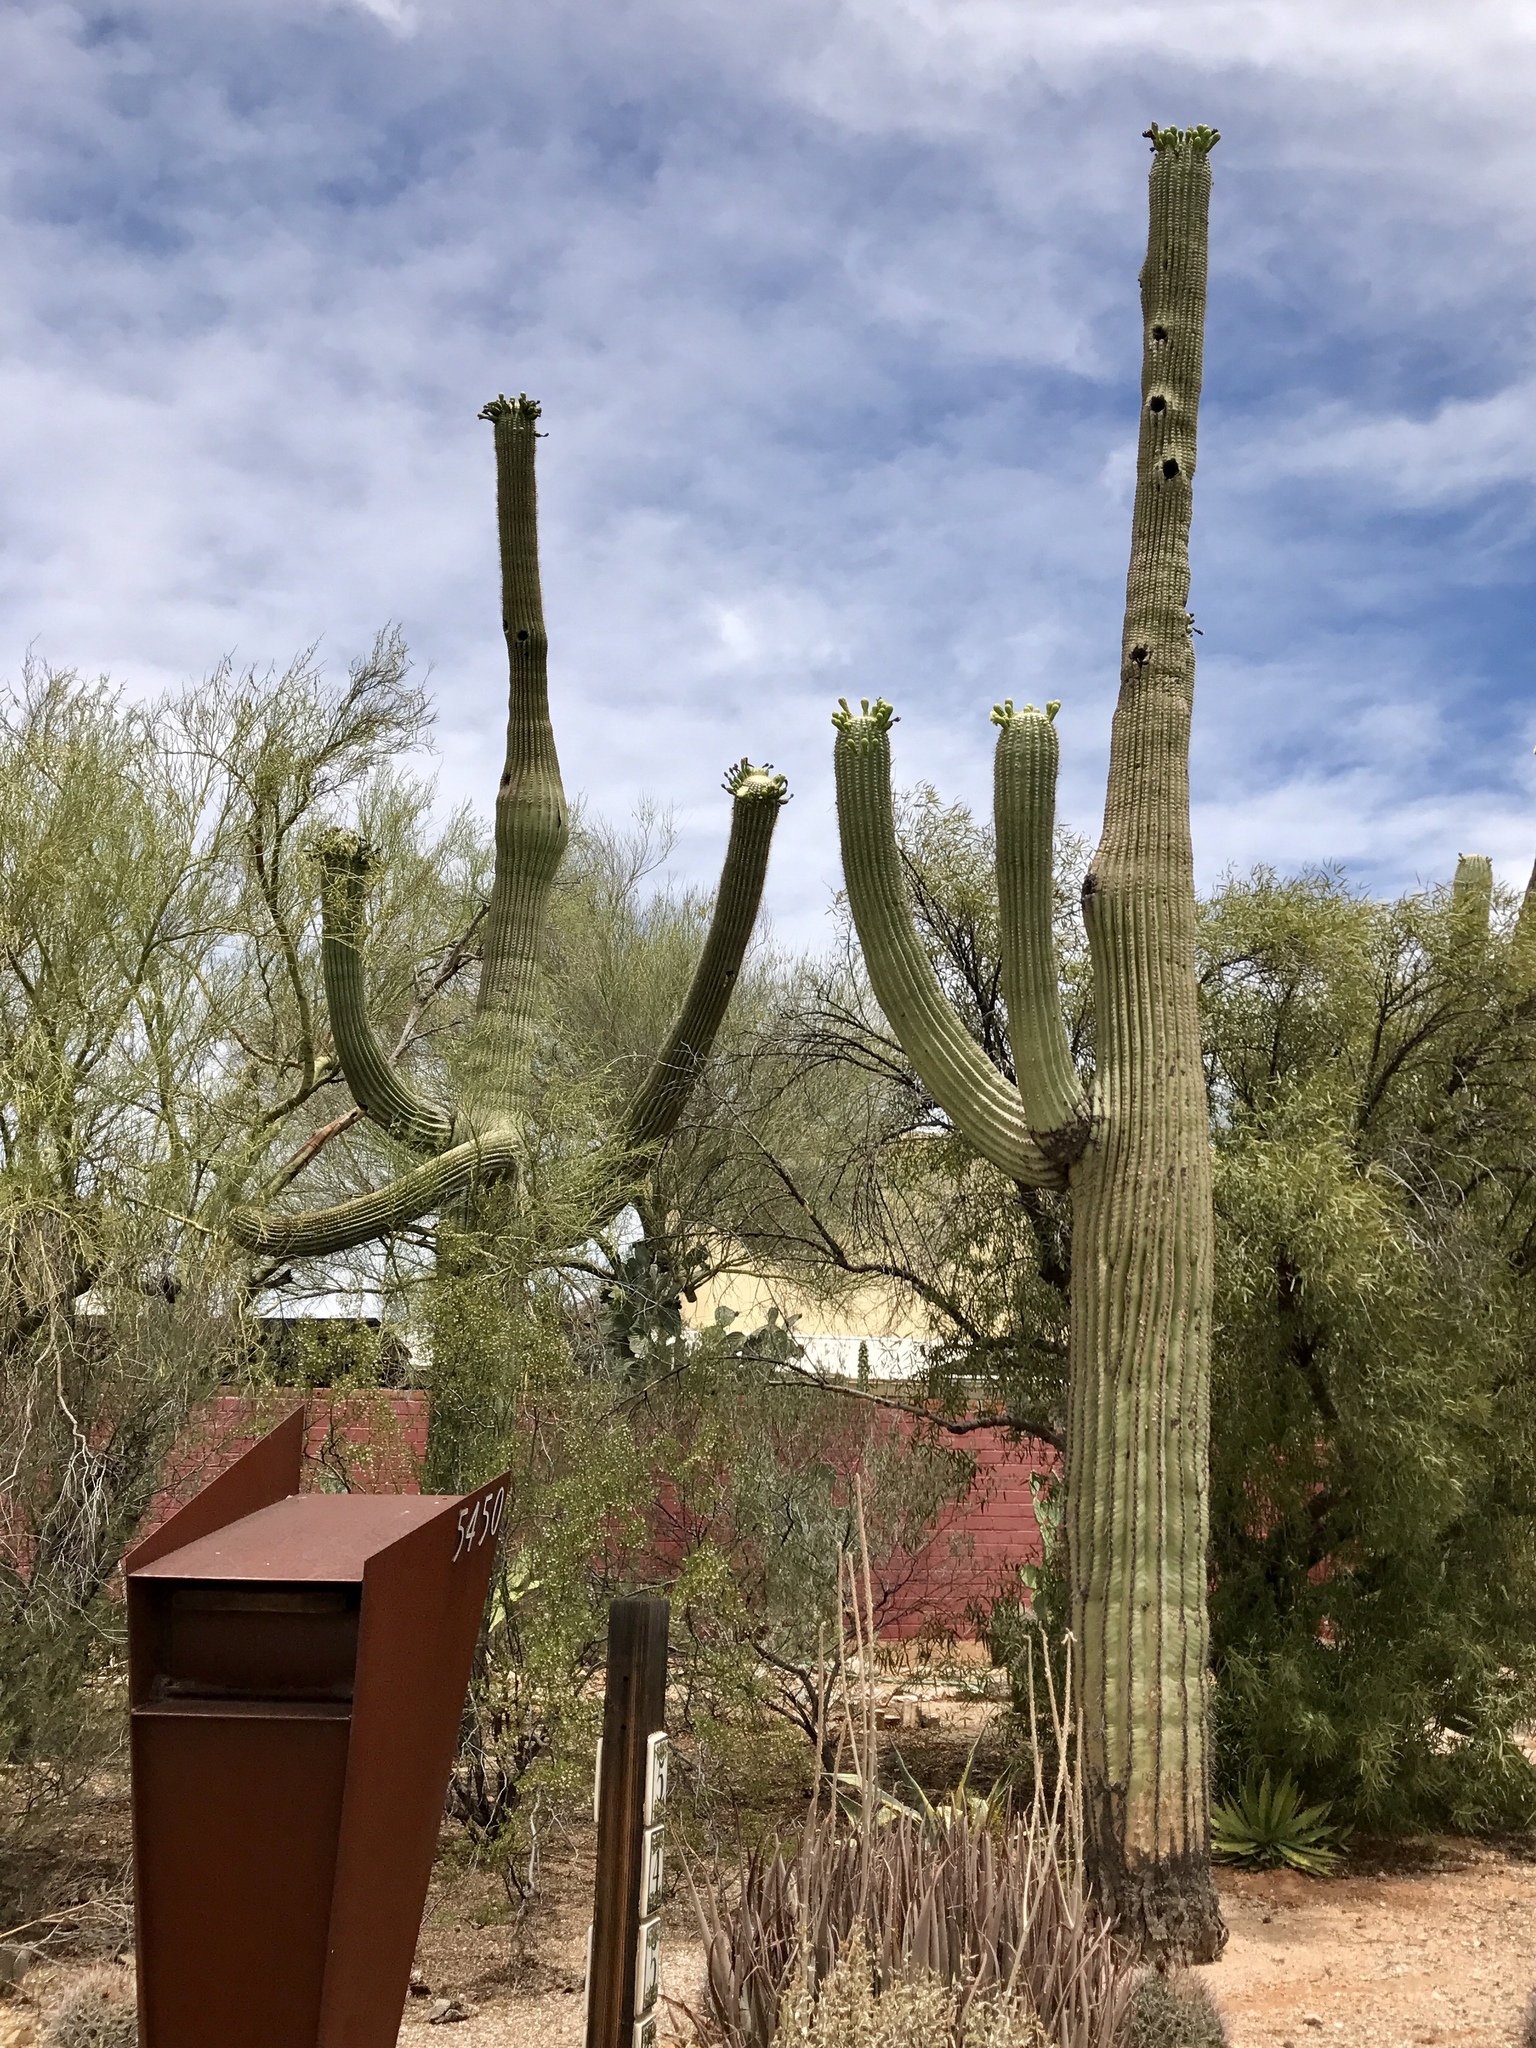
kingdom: Plantae
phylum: Tracheophyta
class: Magnoliopsida
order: Caryophyllales
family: Cactaceae
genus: Carnegiea
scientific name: Carnegiea gigantea
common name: Saguaro
